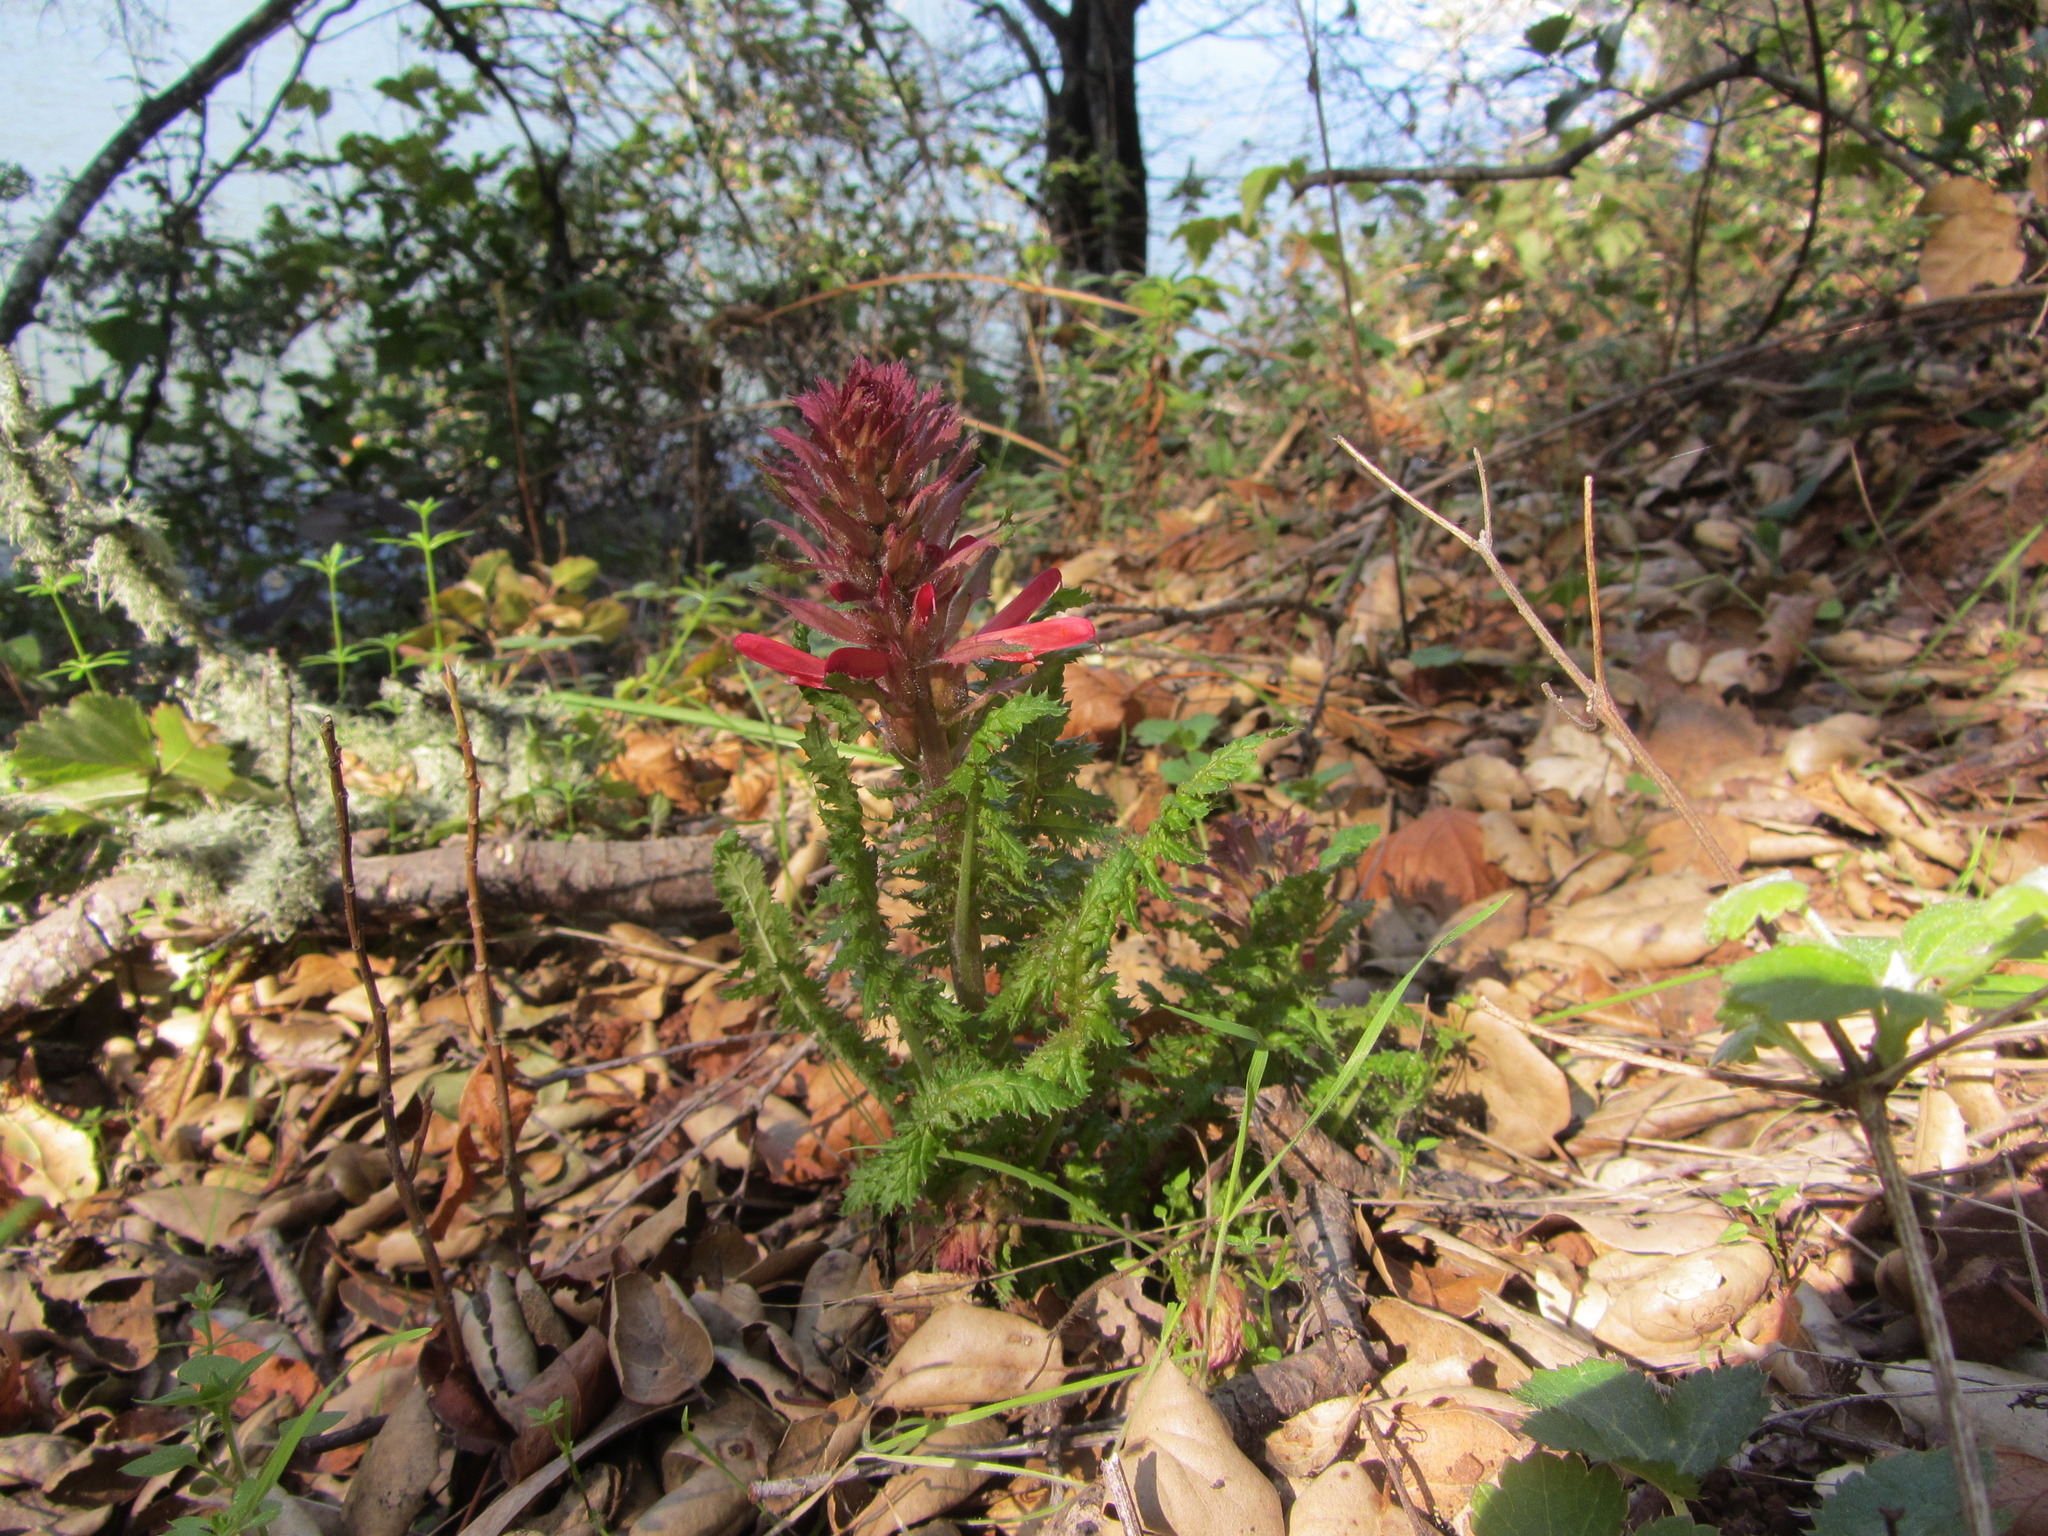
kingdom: Plantae
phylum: Tracheophyta
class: Magnoliopsida
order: Lamiales
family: Orobanchaceae
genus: Pedicularis
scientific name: Pedicularis densiflora
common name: Indian warrior
